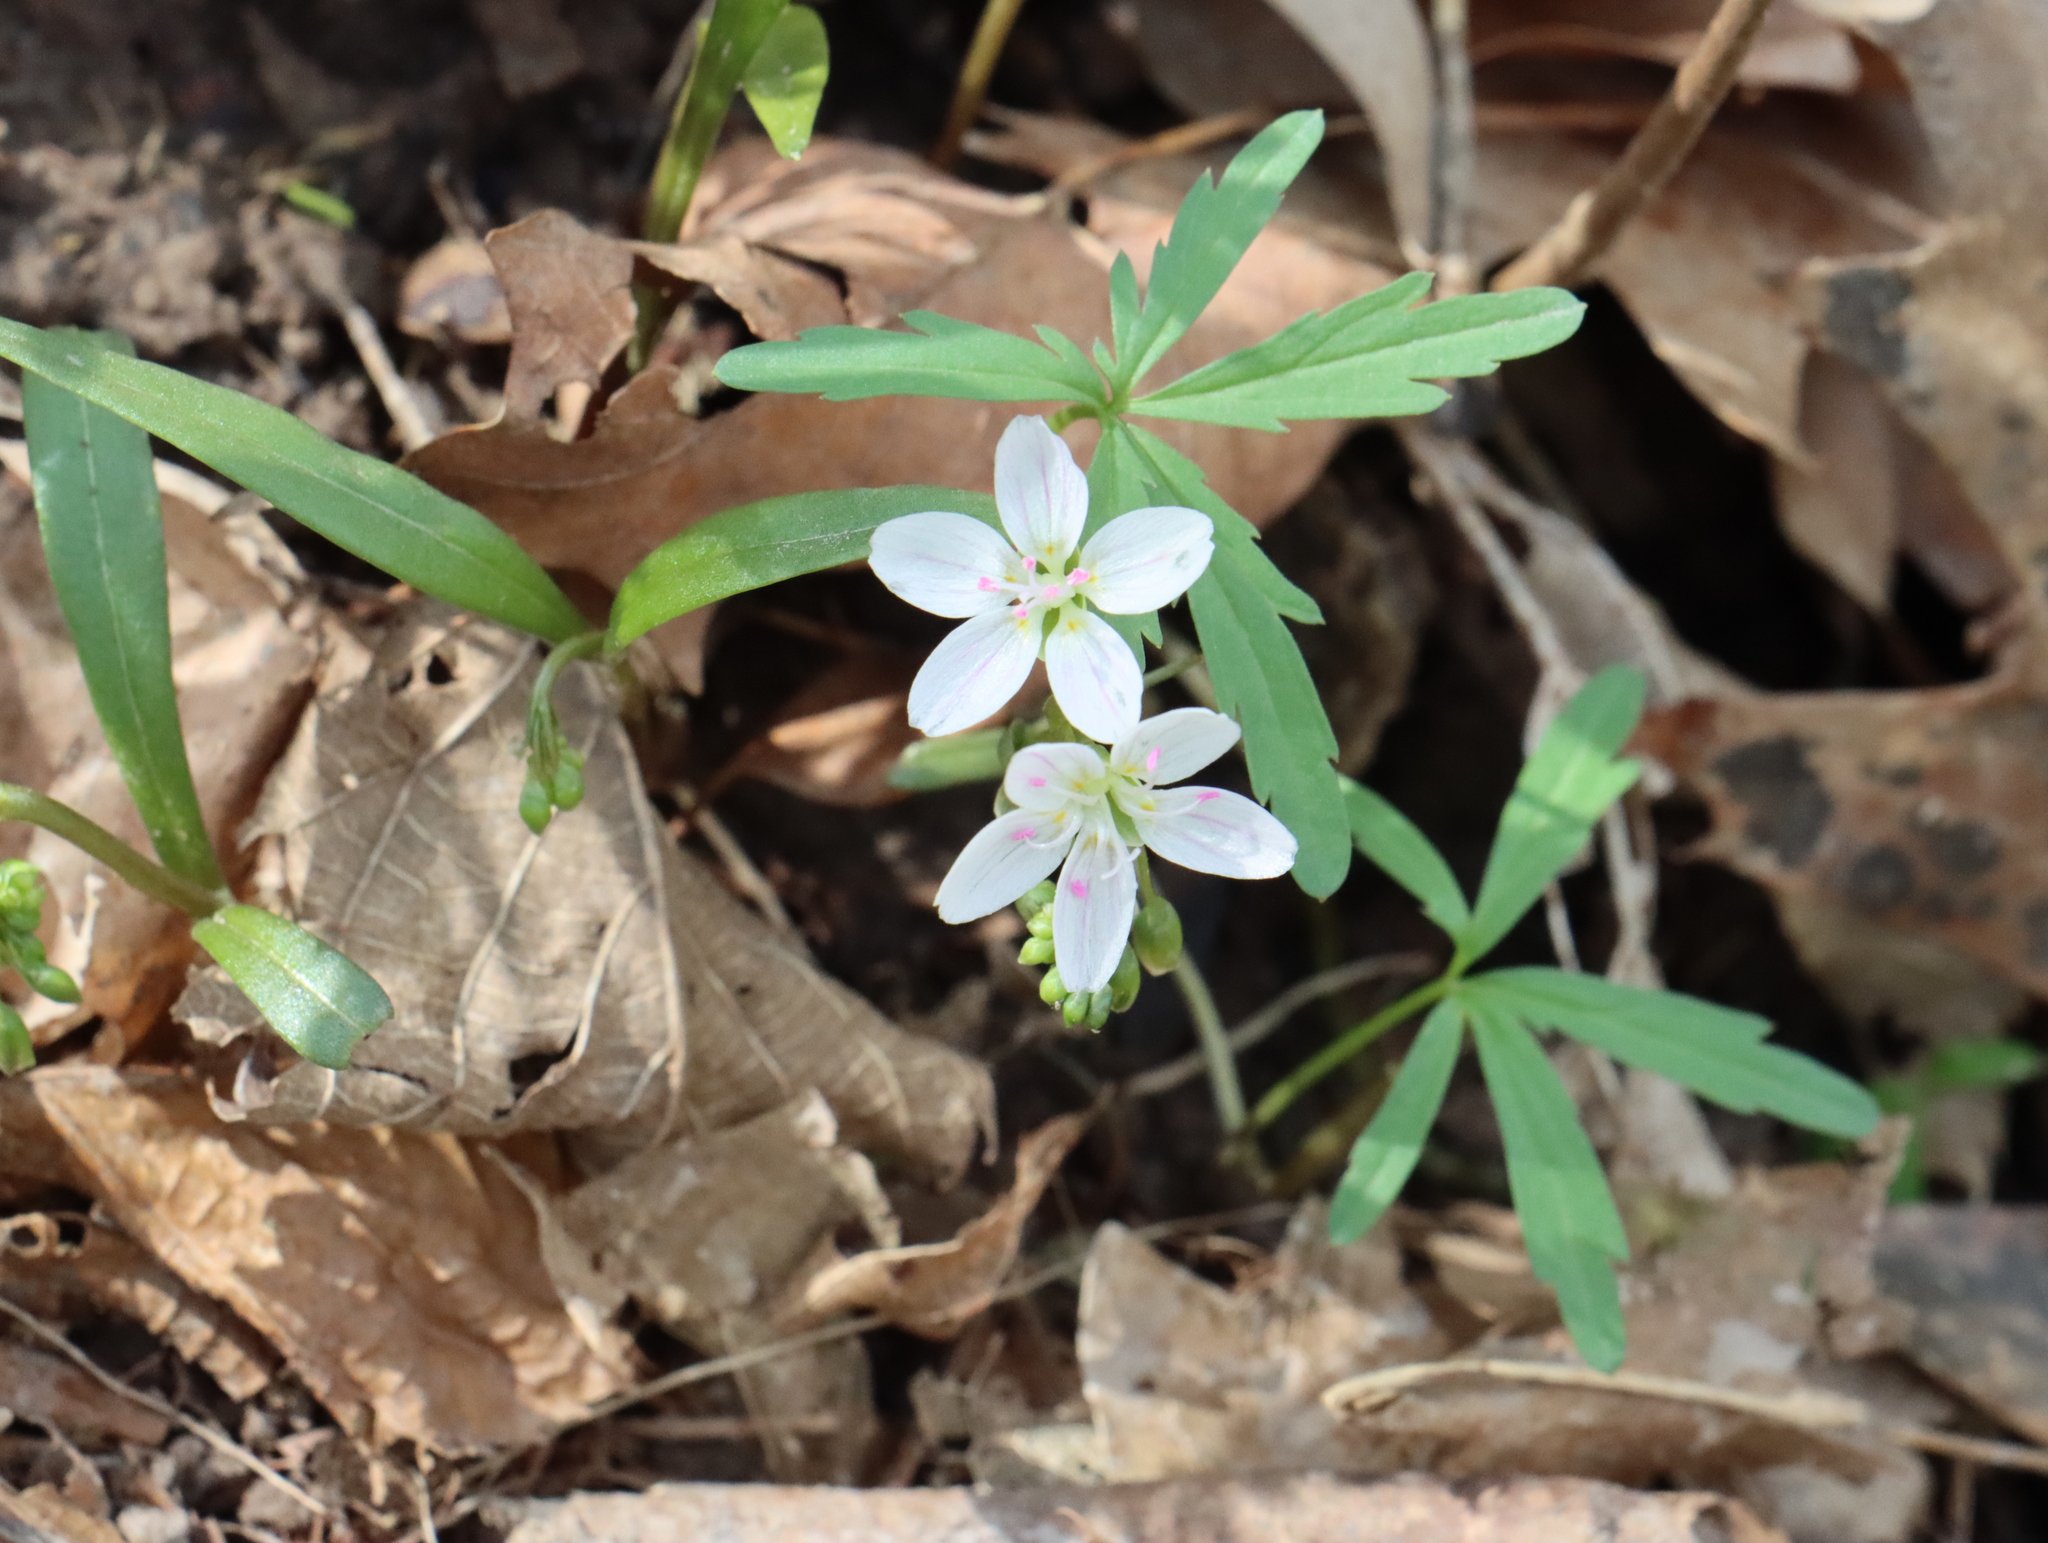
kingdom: Plantae
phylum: Tracheophyta
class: Magnoliopsida
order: Caryophyllales
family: Montiaceae
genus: Claytonia
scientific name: Claytonia virginica
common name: Virginia springbeauty
